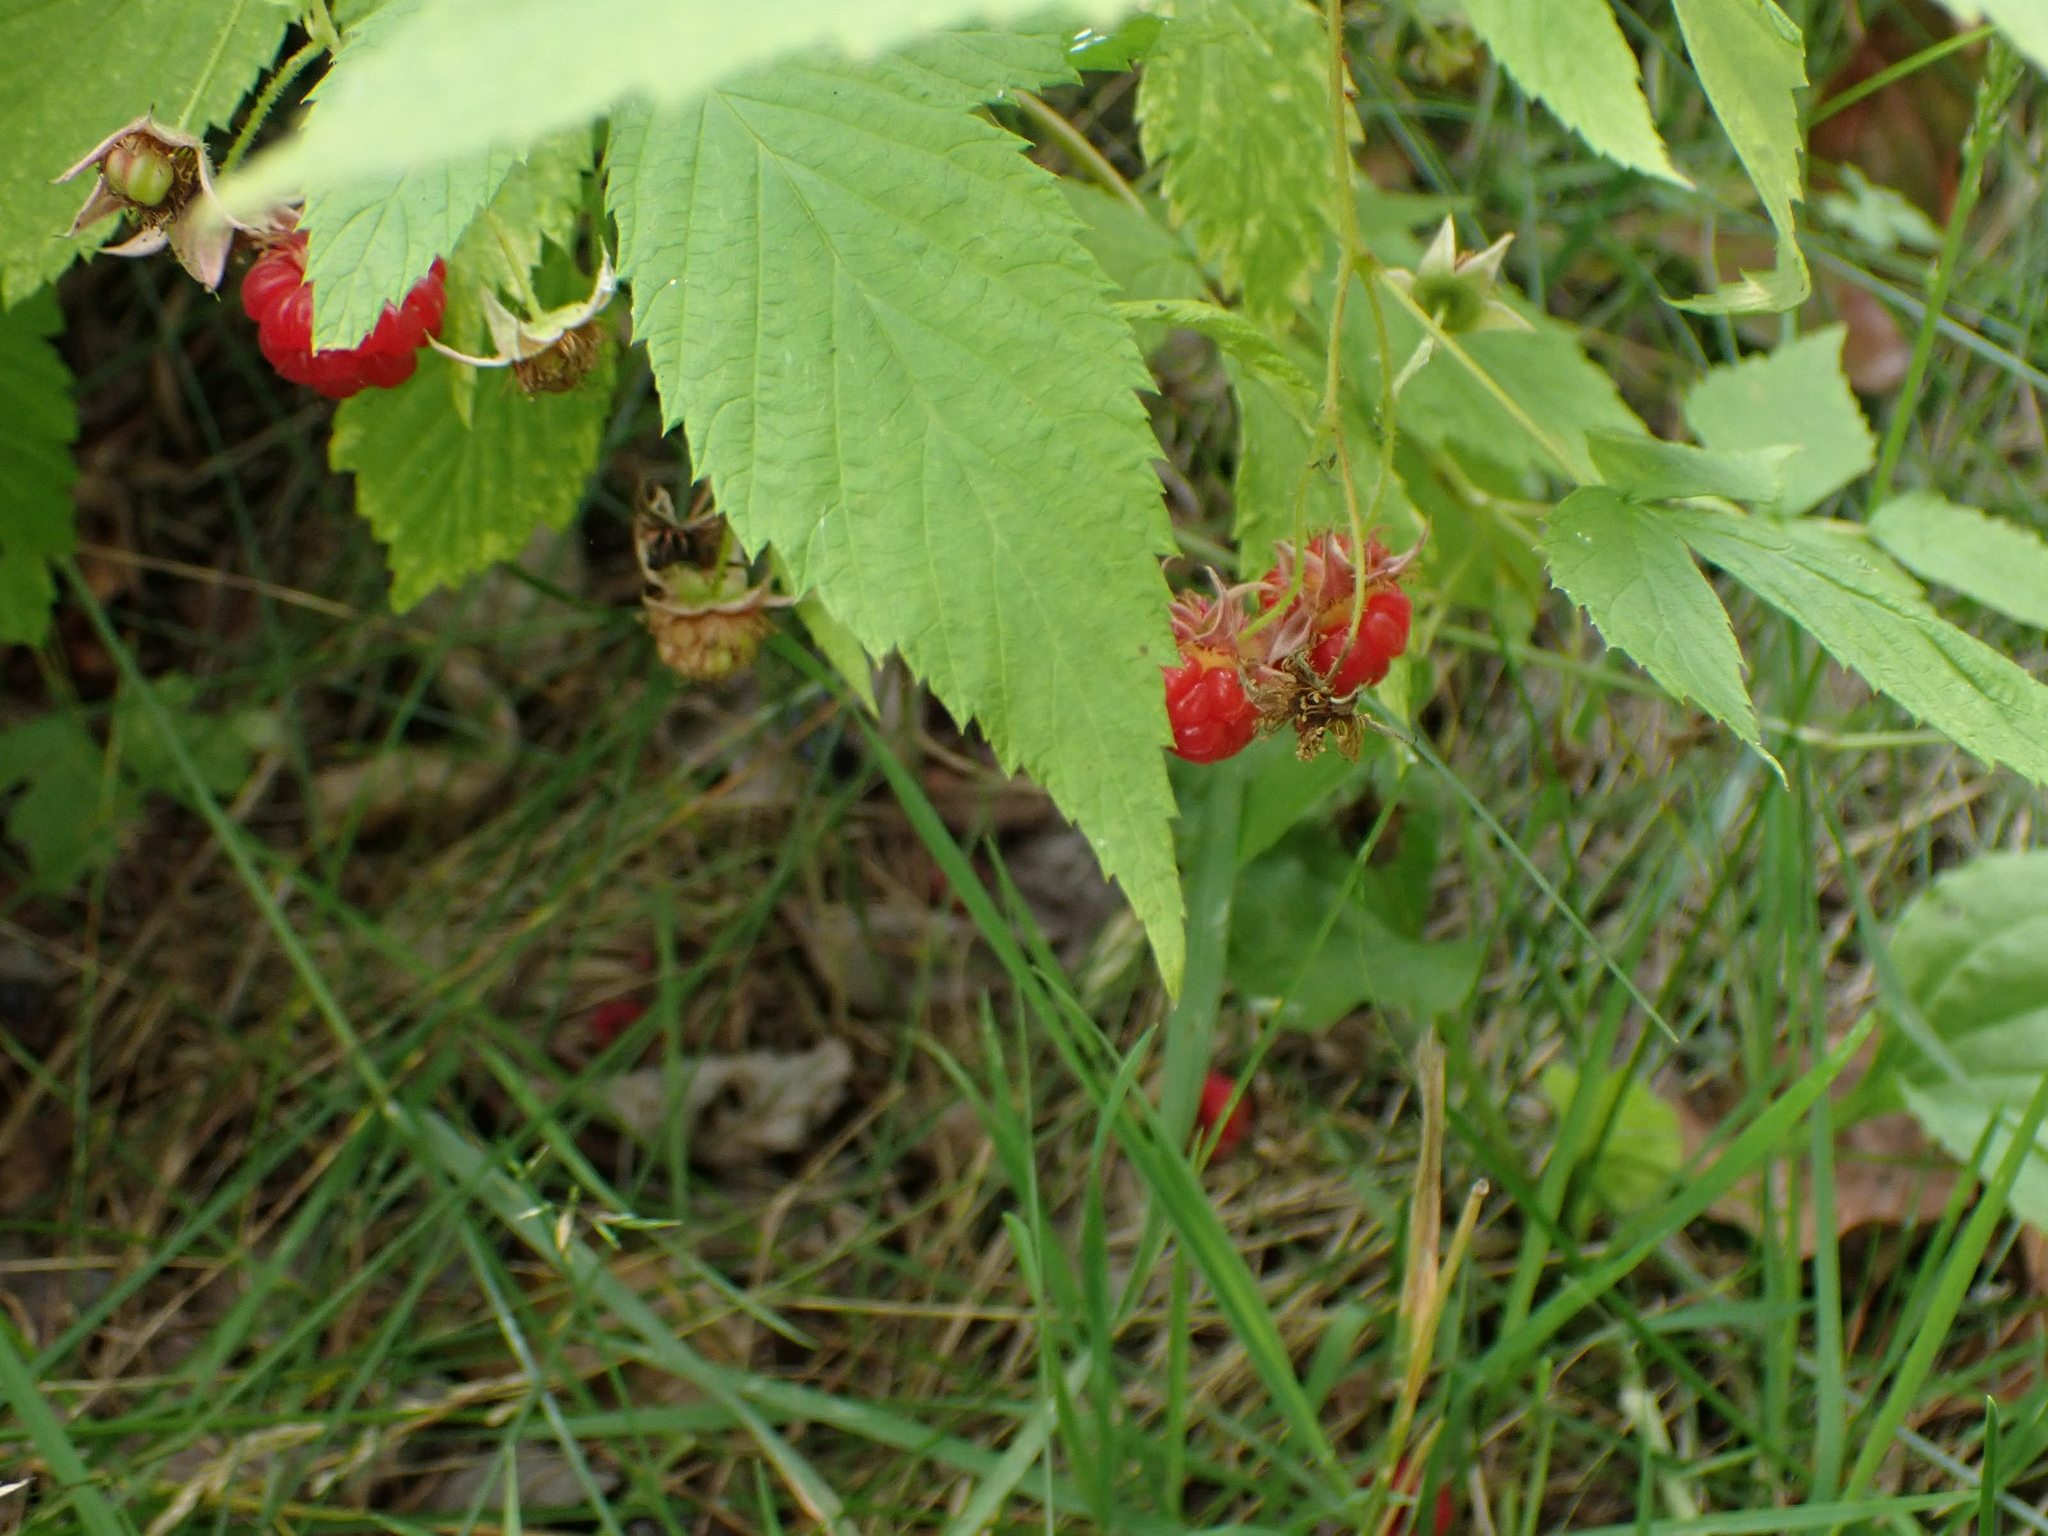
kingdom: Plantae
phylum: Tracheophyta
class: Magnoliopsida
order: Rosales
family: Rosaceae
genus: Rubus
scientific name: Rubus idaeus
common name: Raspberry
